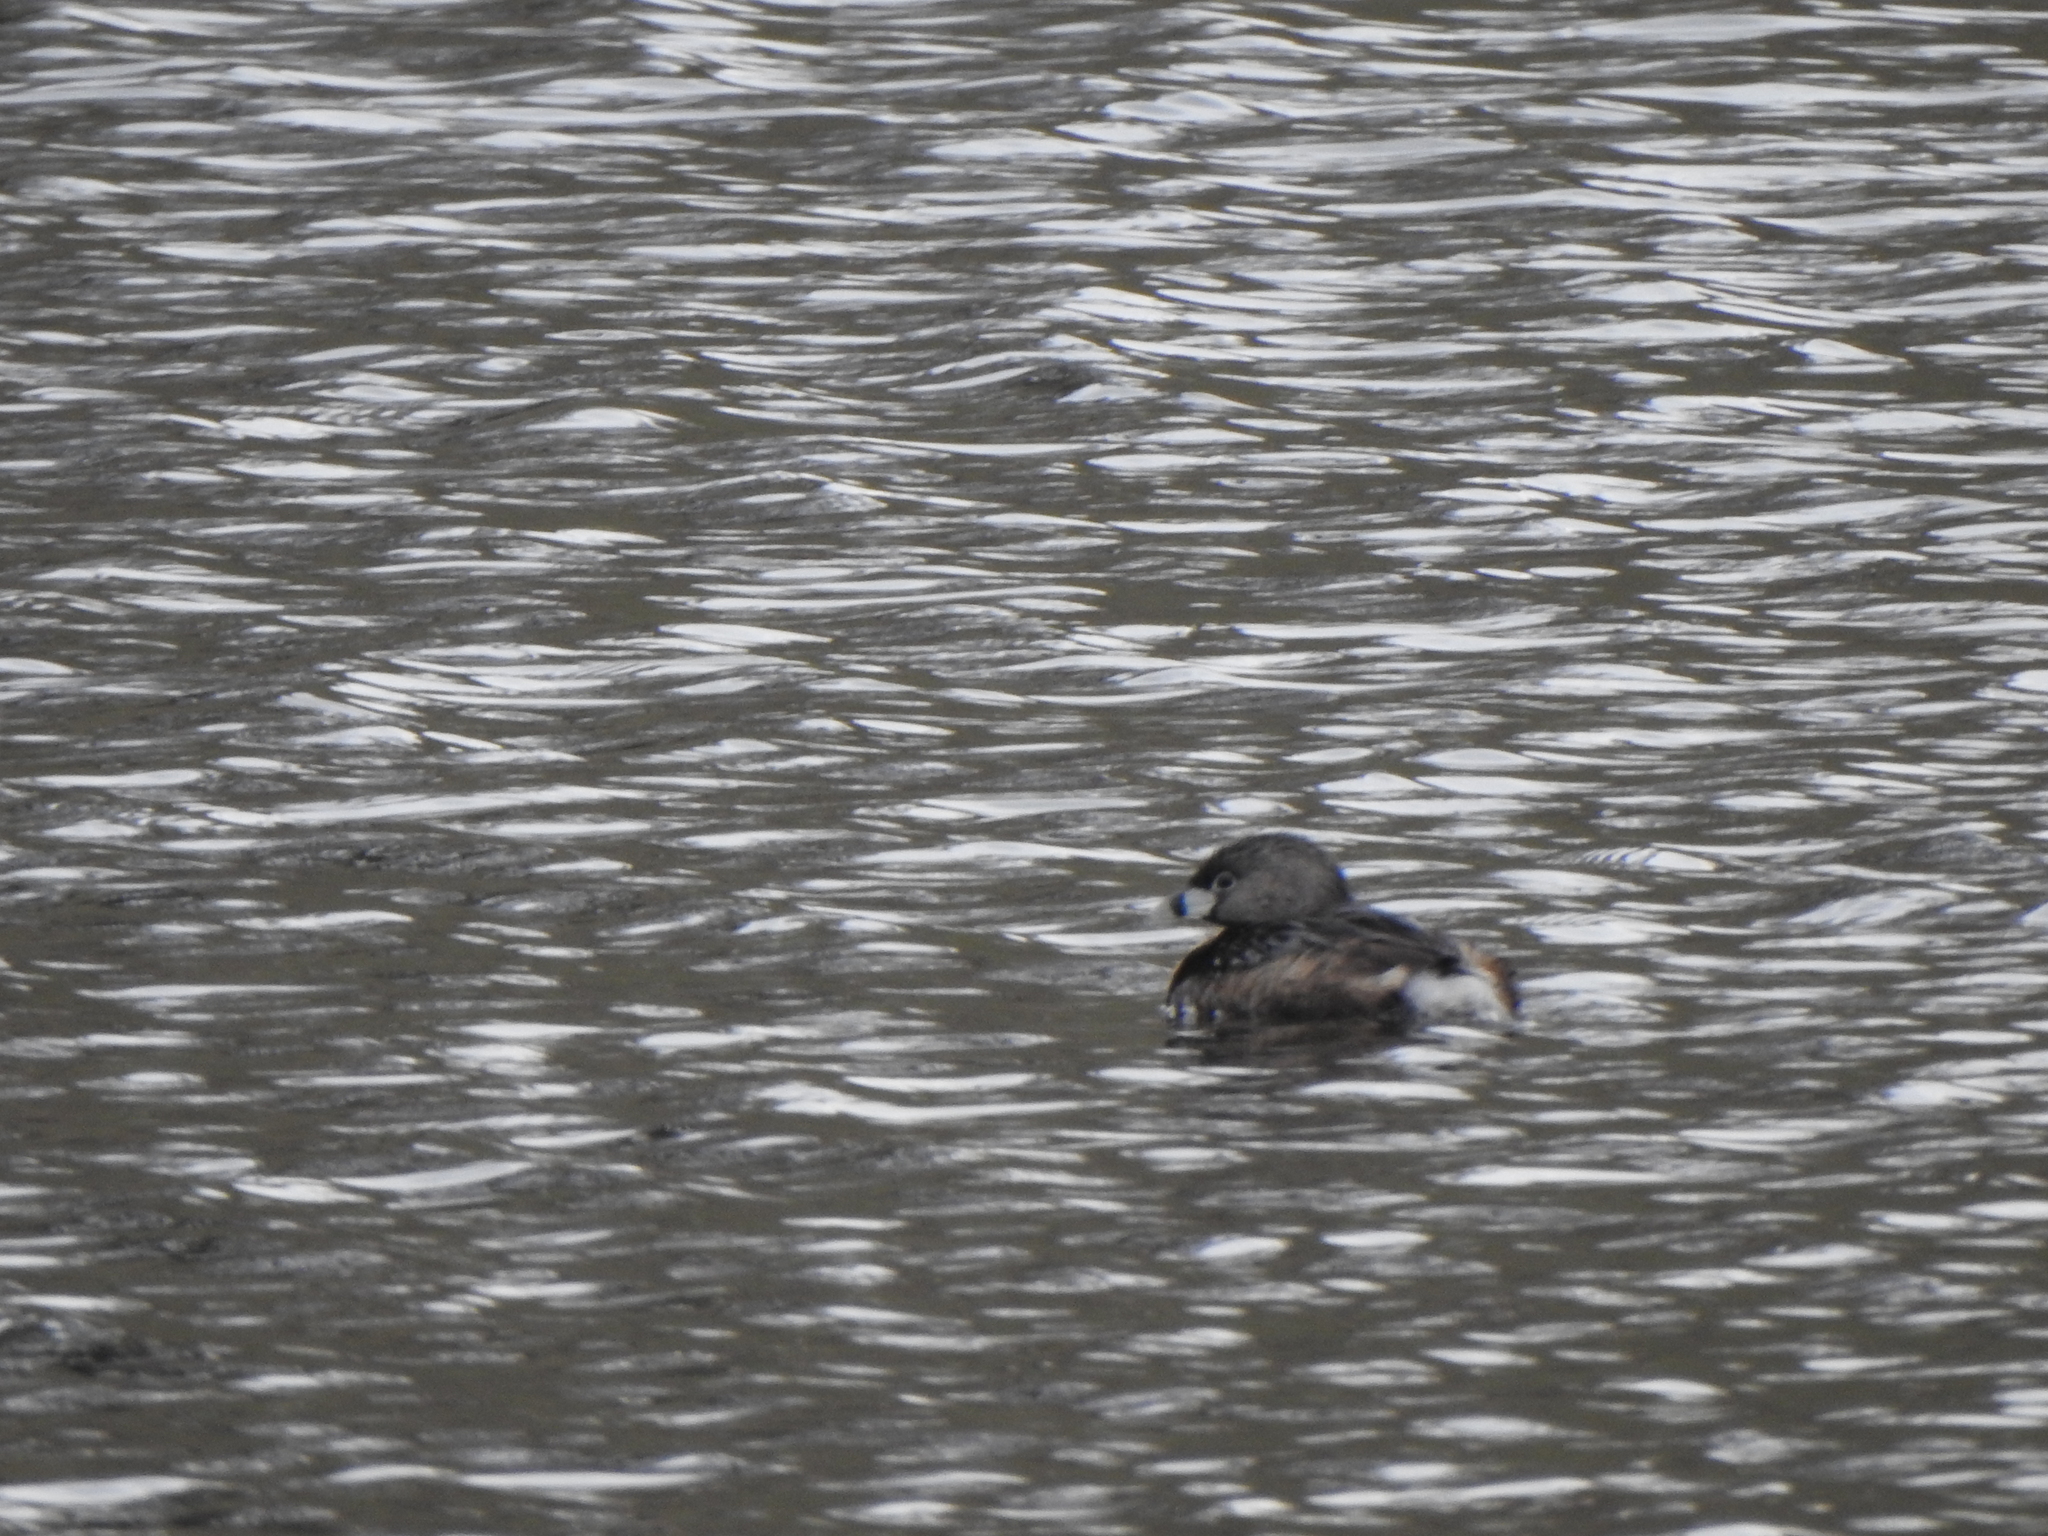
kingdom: Animalia
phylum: Chordata
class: Aves
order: Podicipediformes
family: Podicipedidae
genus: Podilymbus
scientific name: Podilymbus podiceps
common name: Pied-billed grebe
